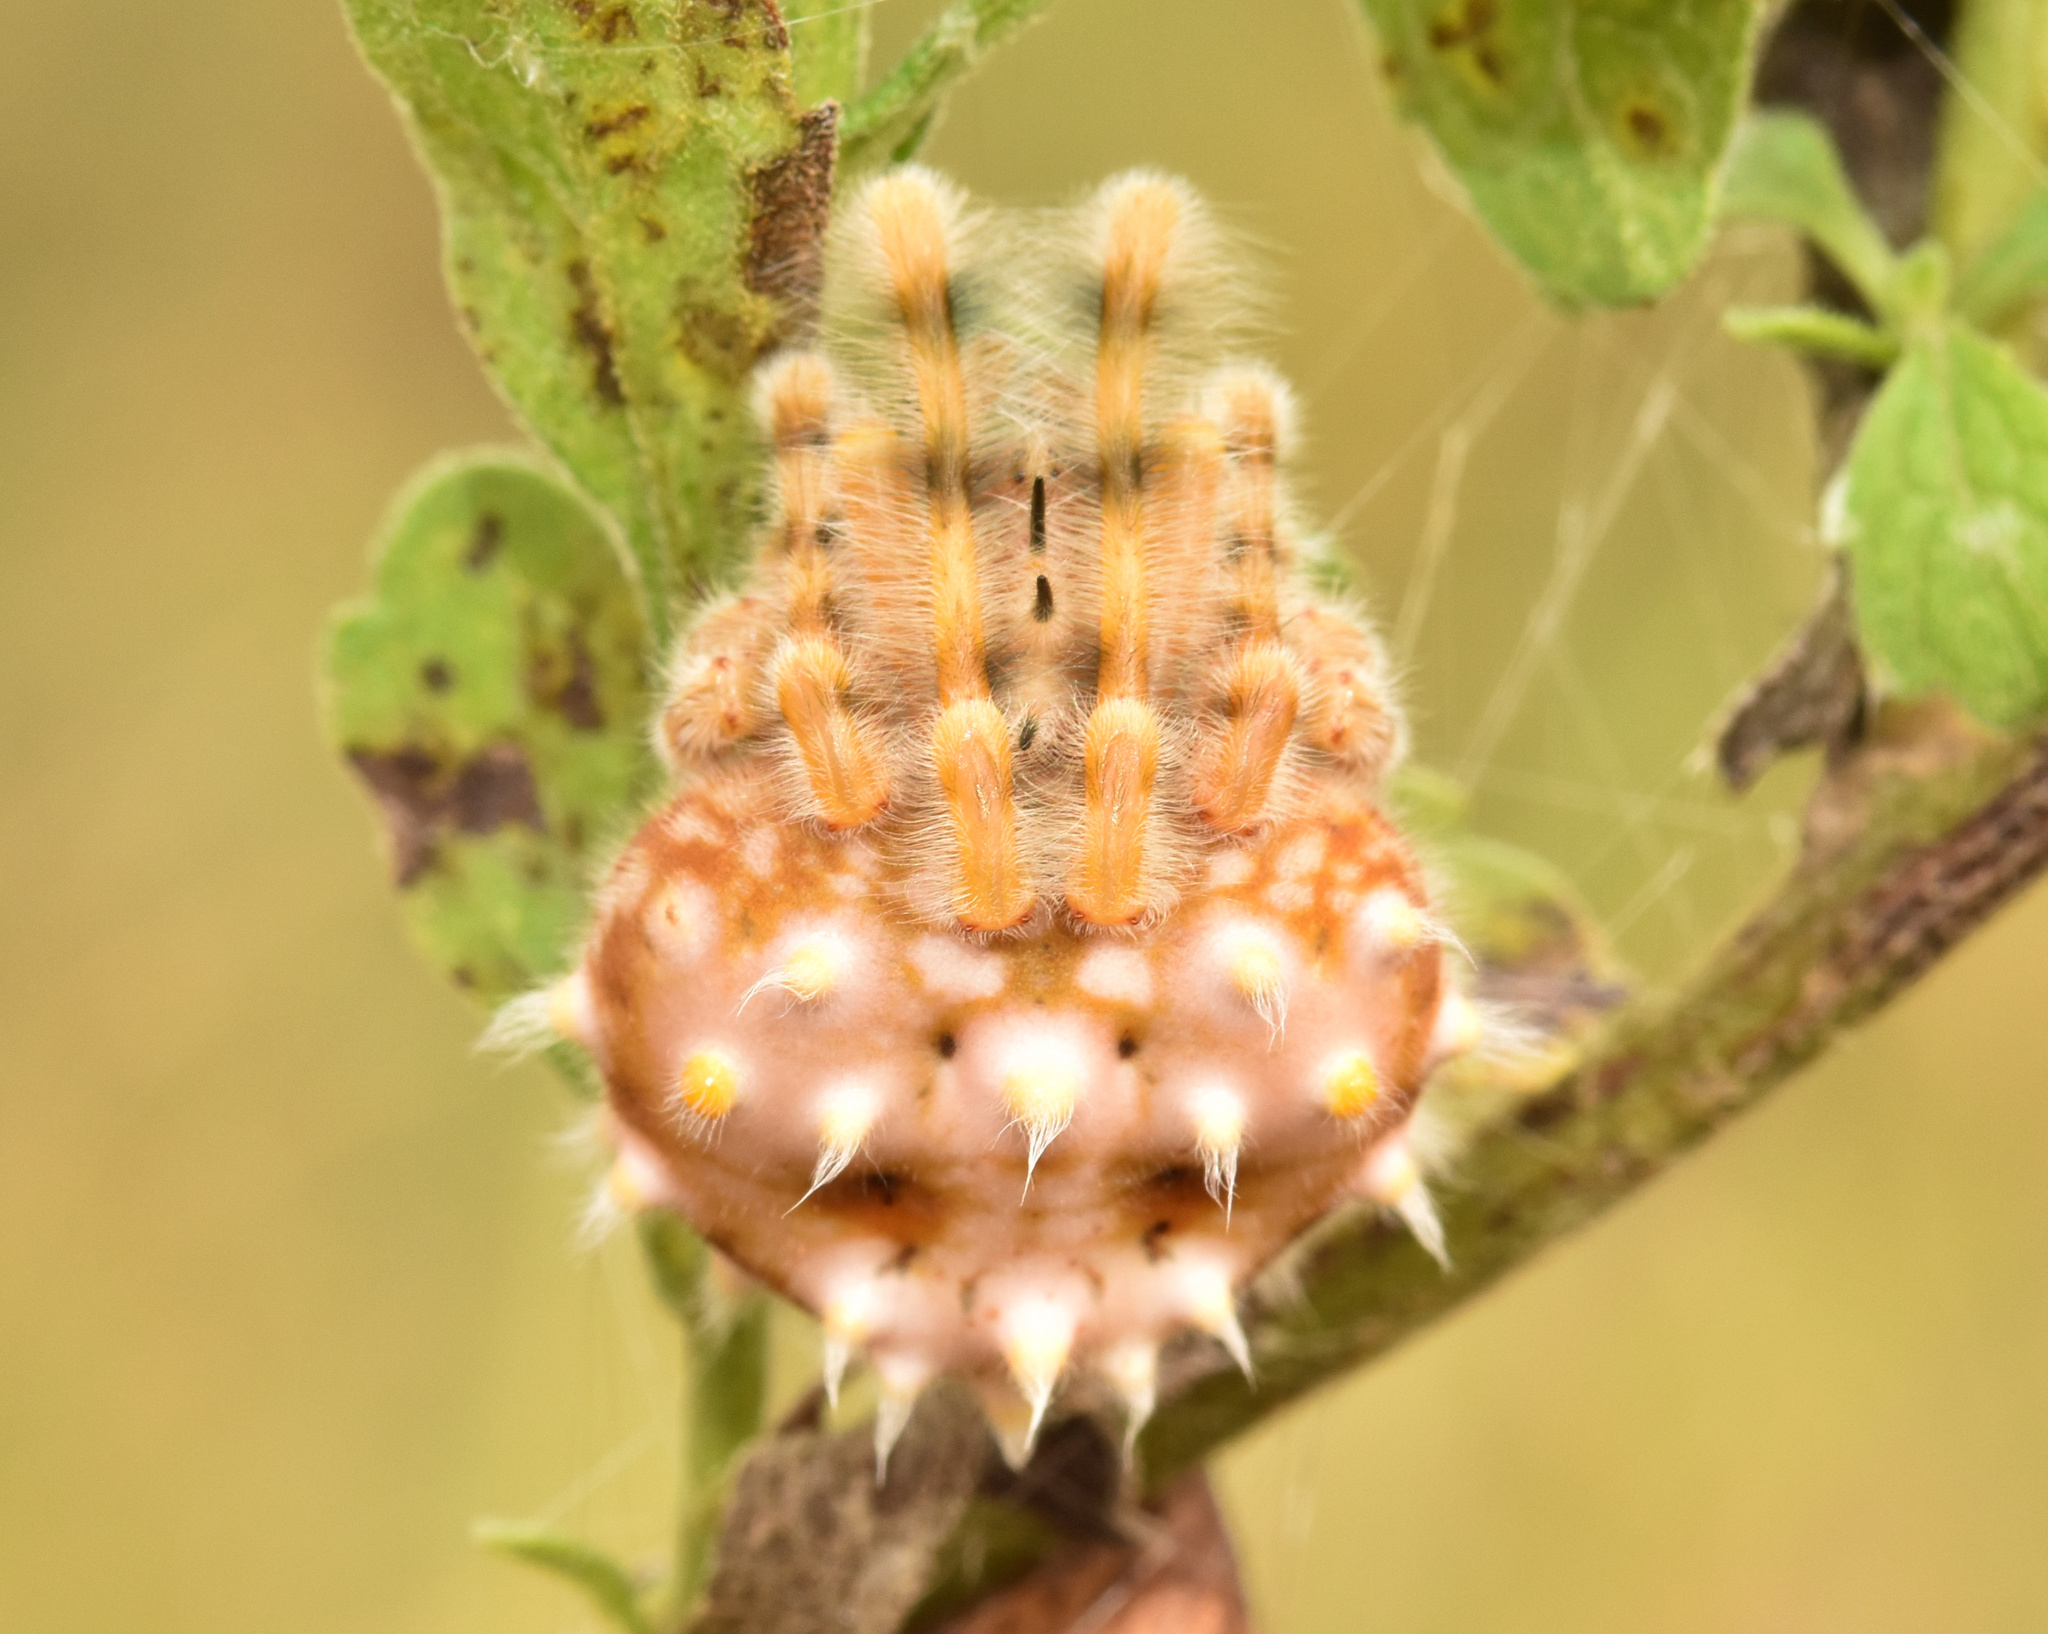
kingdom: Animalia
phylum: Arthropoda
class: Arachnida
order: Araneae
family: Araneidae
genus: Cladomelea
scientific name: Cladomelea akermani
